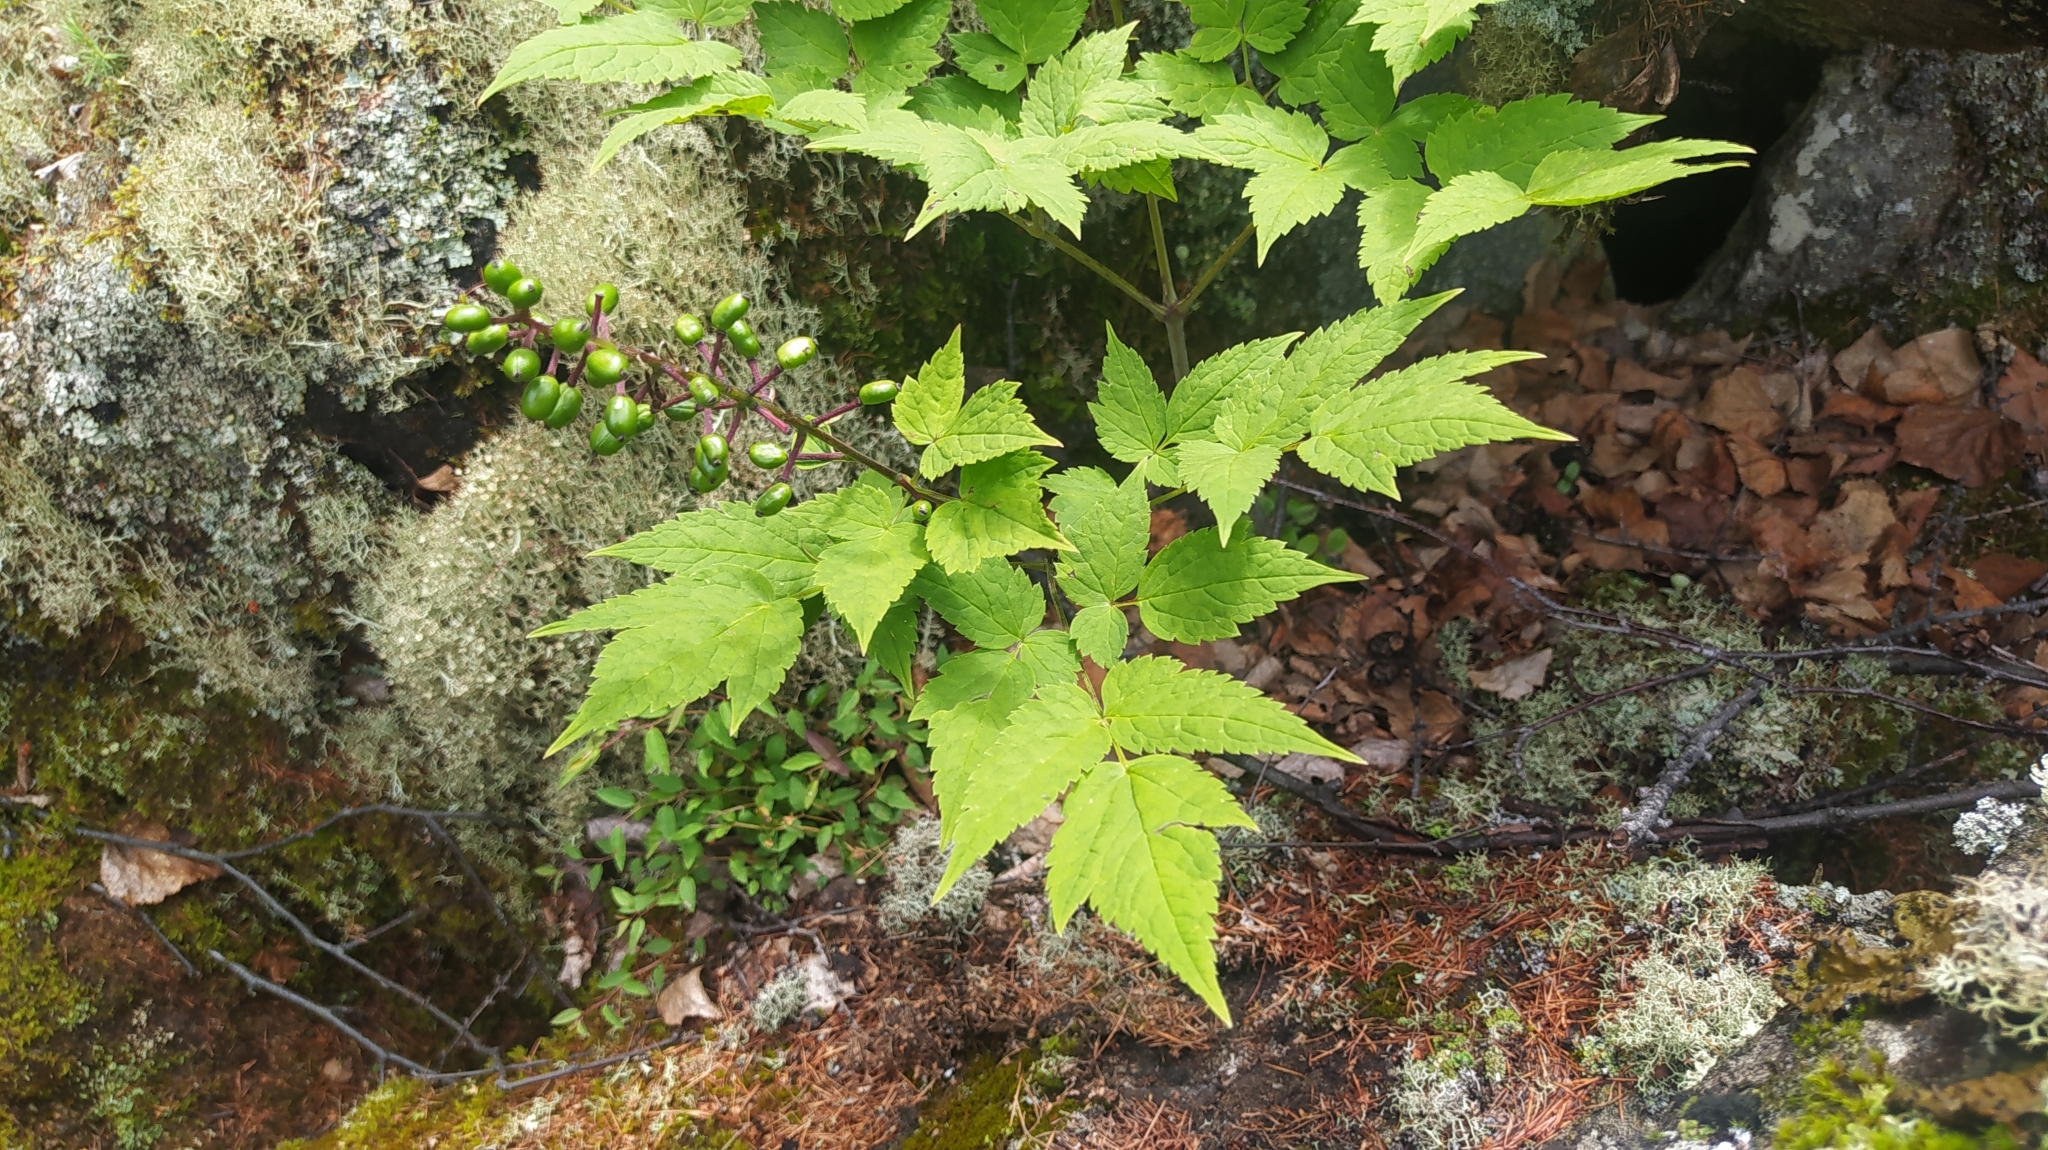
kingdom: Plantae
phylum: Tracheophyta
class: Magnoliopsida
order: Ranunculales
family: Ranunculaceae
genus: Actaea
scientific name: Actaea erythrocarpa
